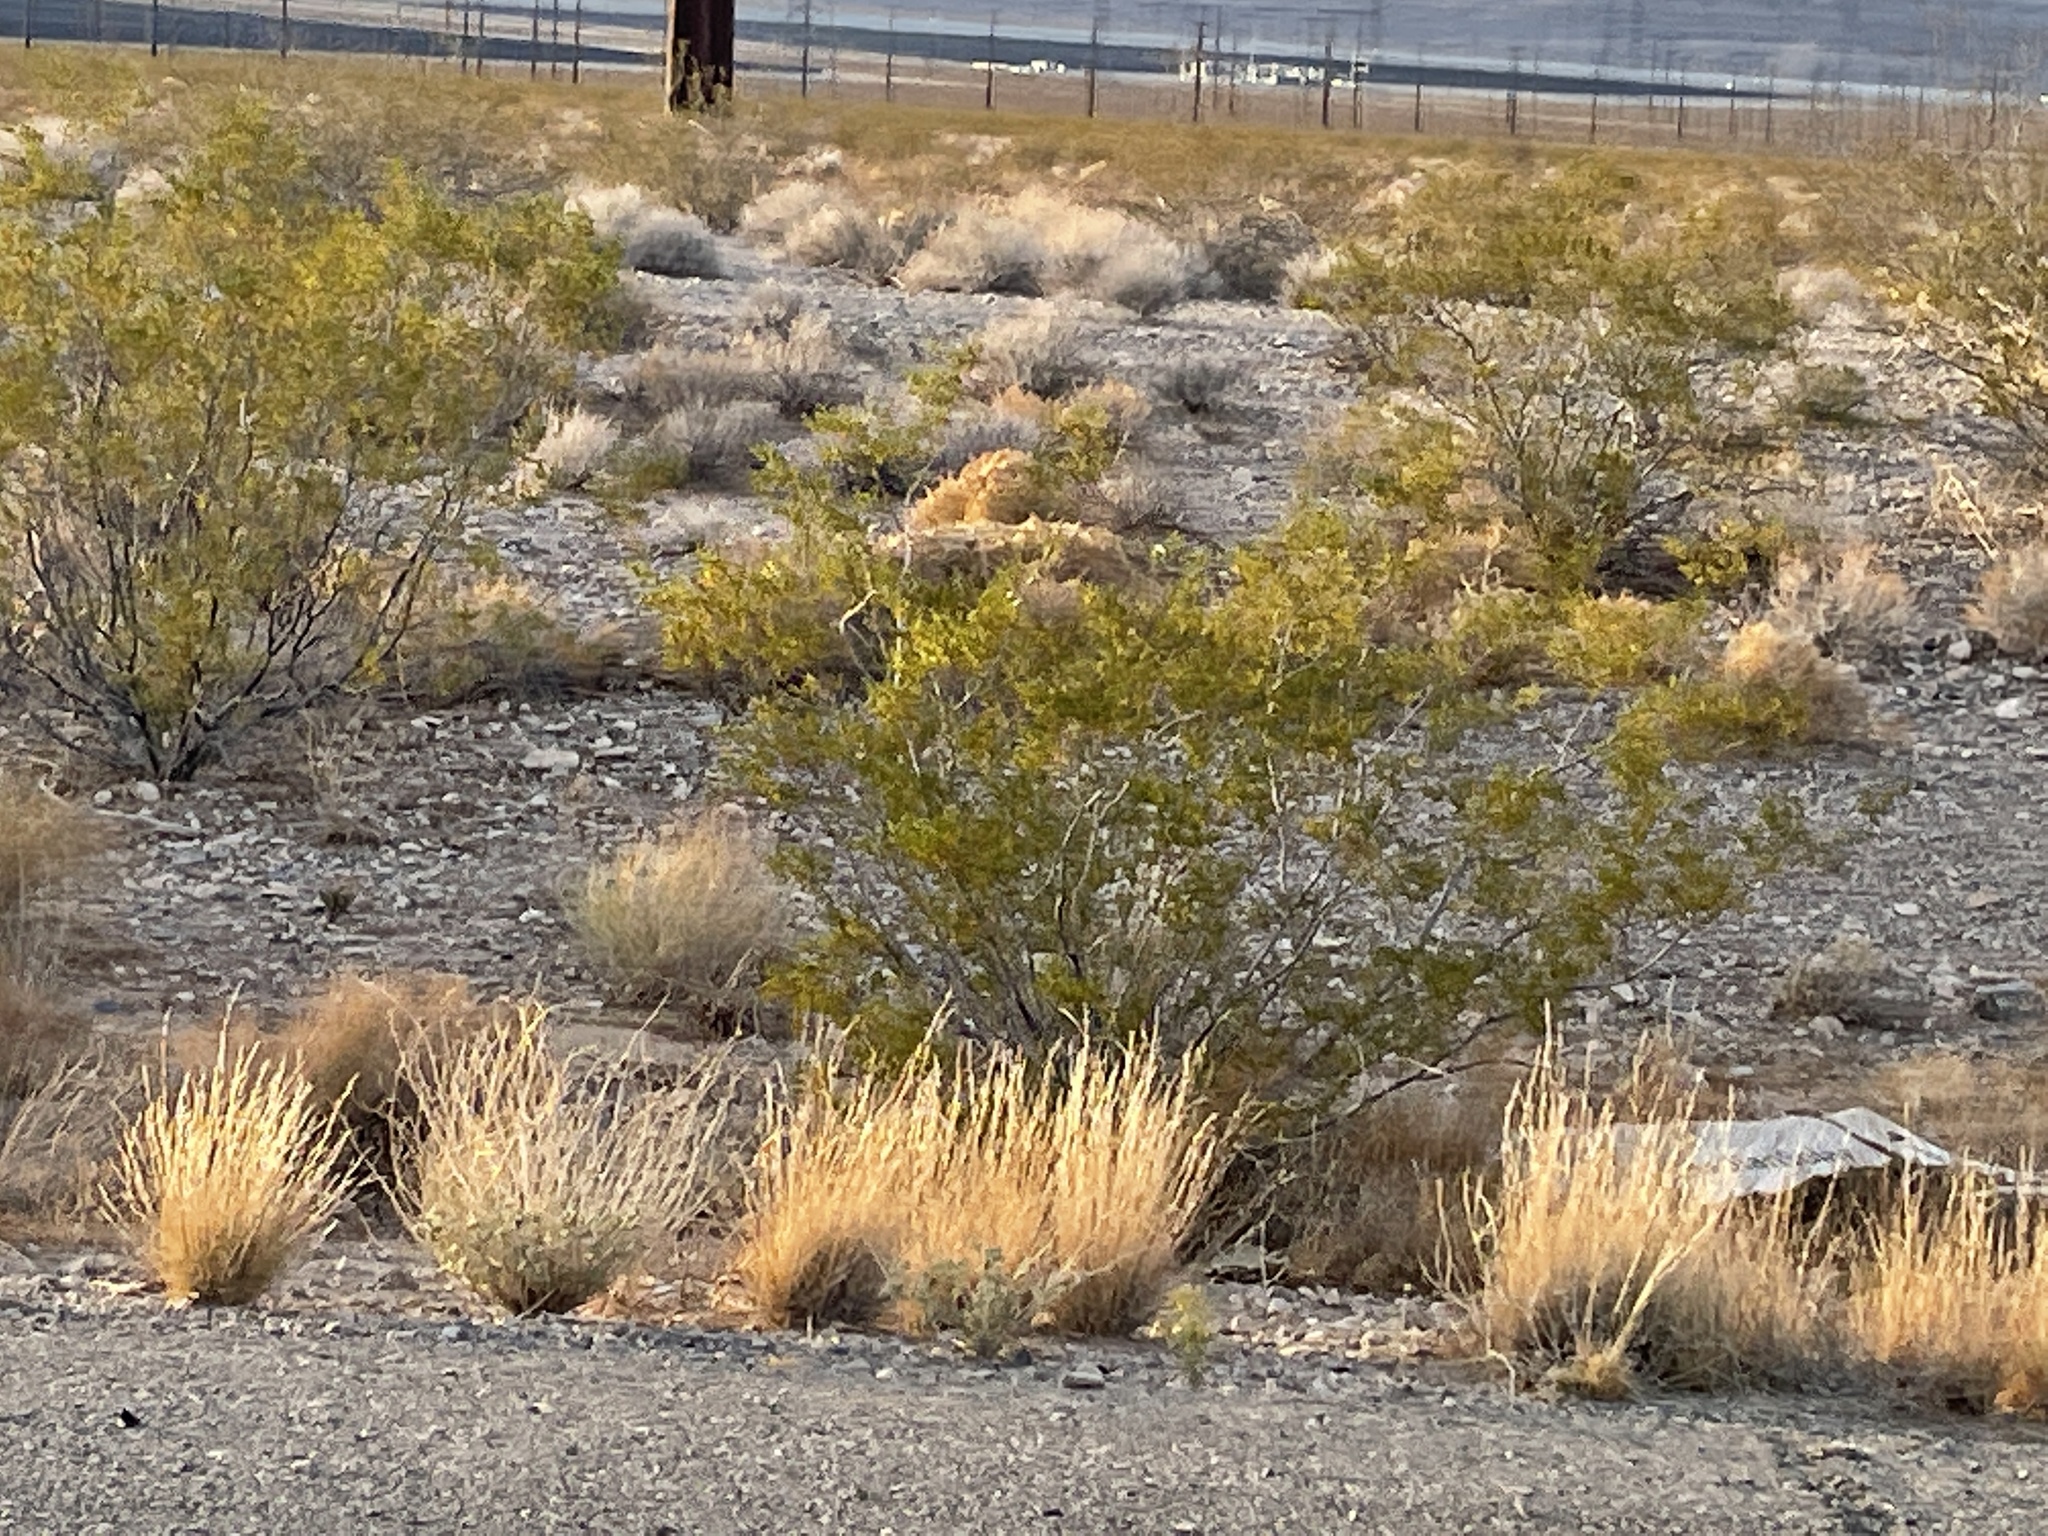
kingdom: Plantae
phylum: Tracheophyta
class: Magnoliopsida
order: Zygophyllales
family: Zygophyllaceae
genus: Larrea
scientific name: Larrea tridentata
